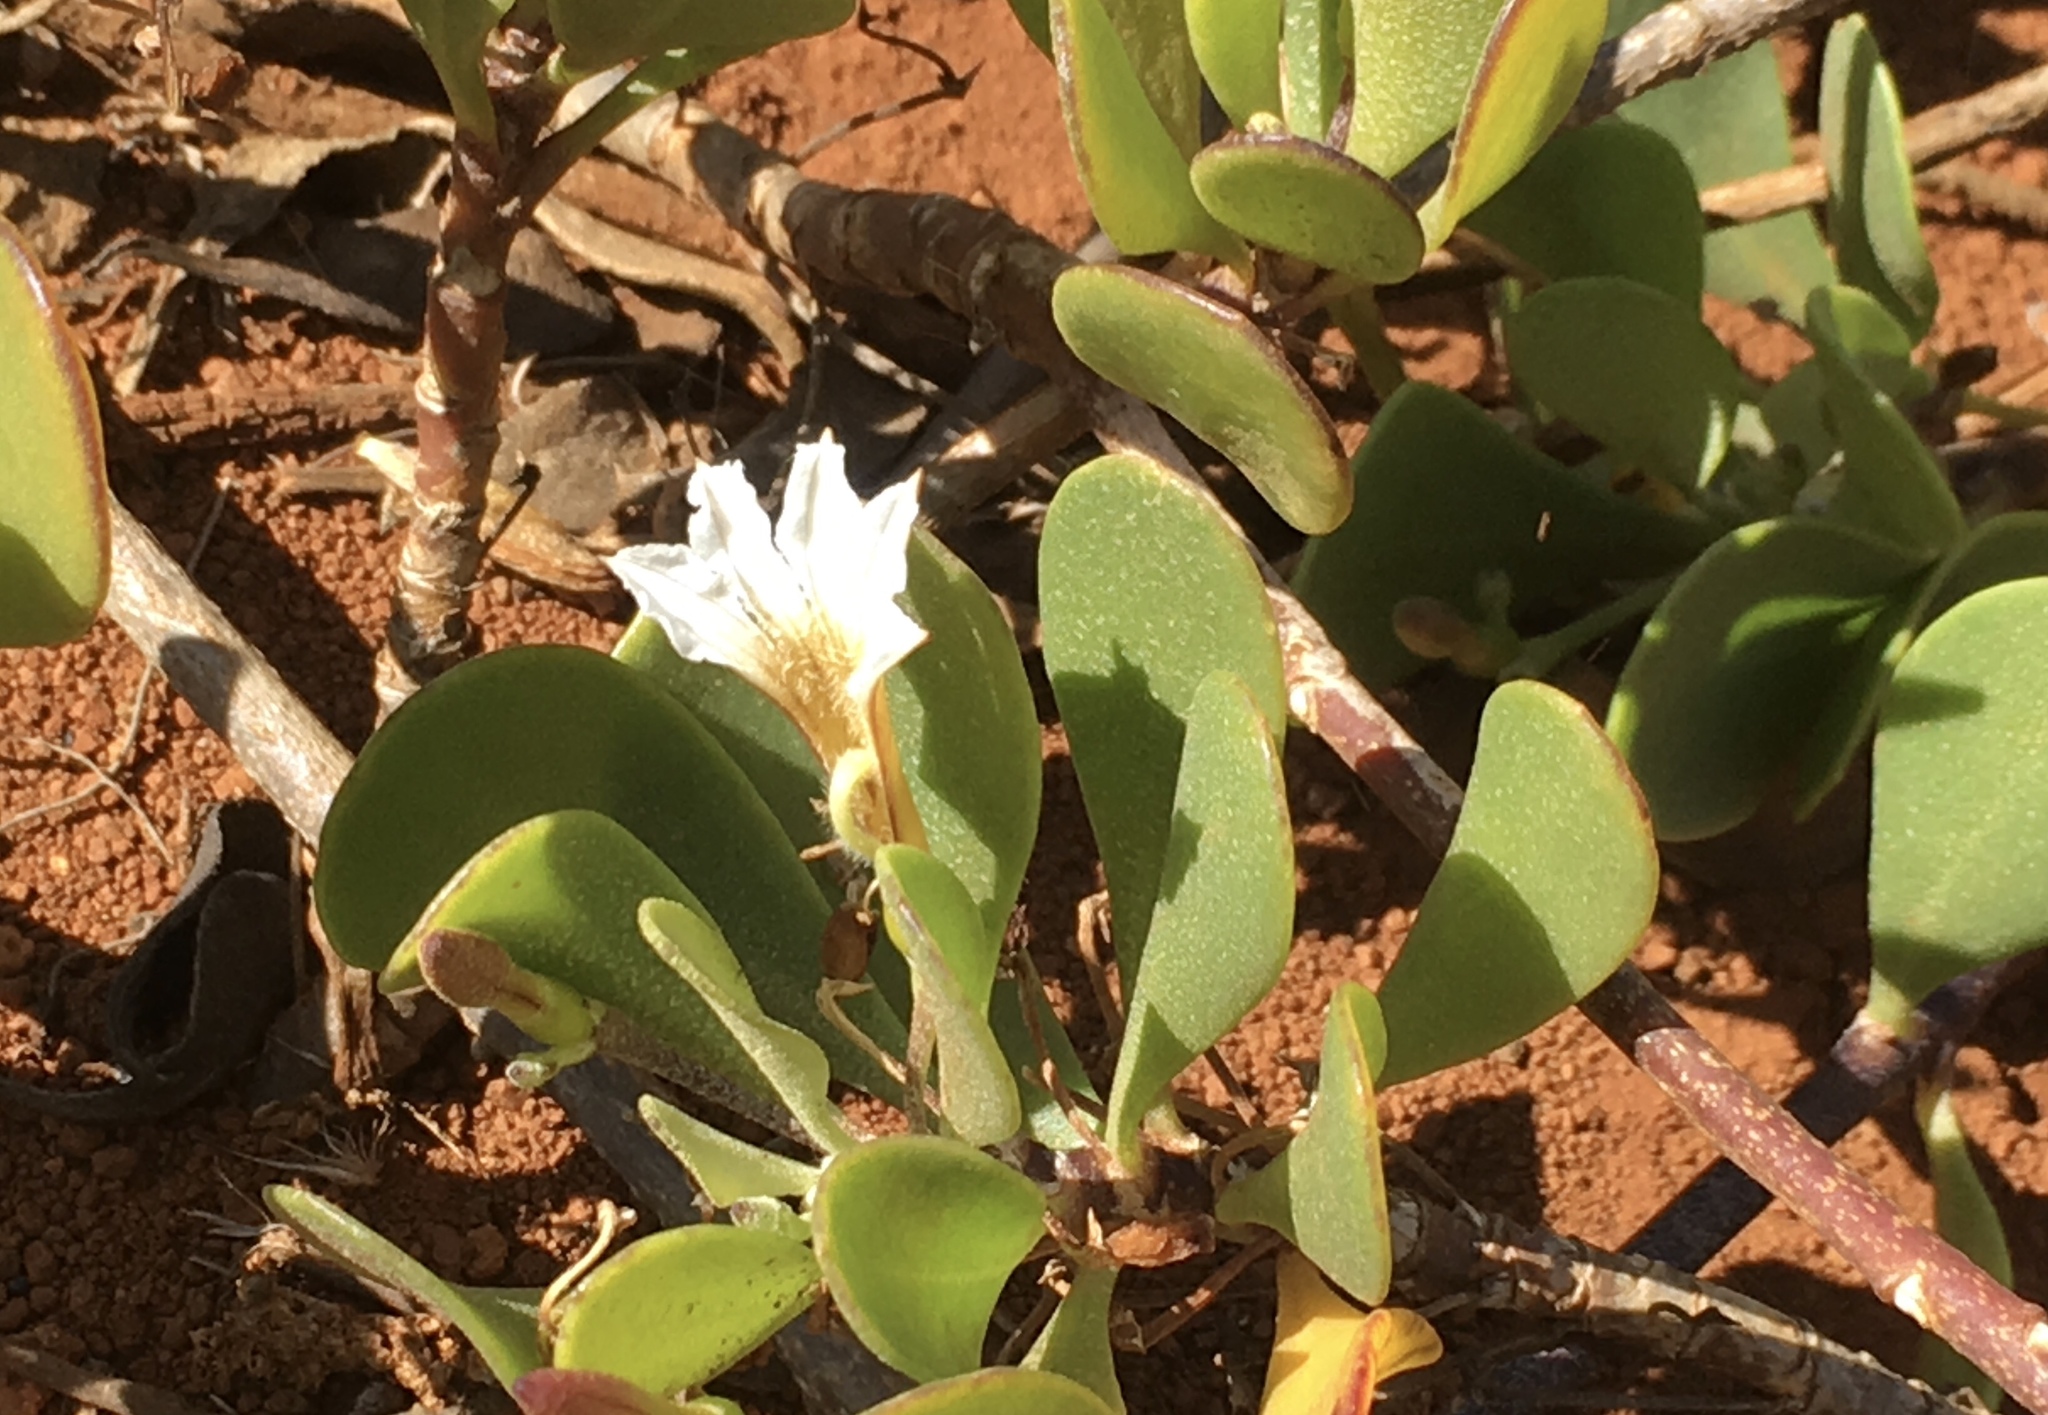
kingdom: Plantae
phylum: Tracheophyta
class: Magnoliopsida
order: Asterales
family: Goodeniaceae
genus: Scaevola
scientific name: Scaevola coriacea
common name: Dwarf naupaka
